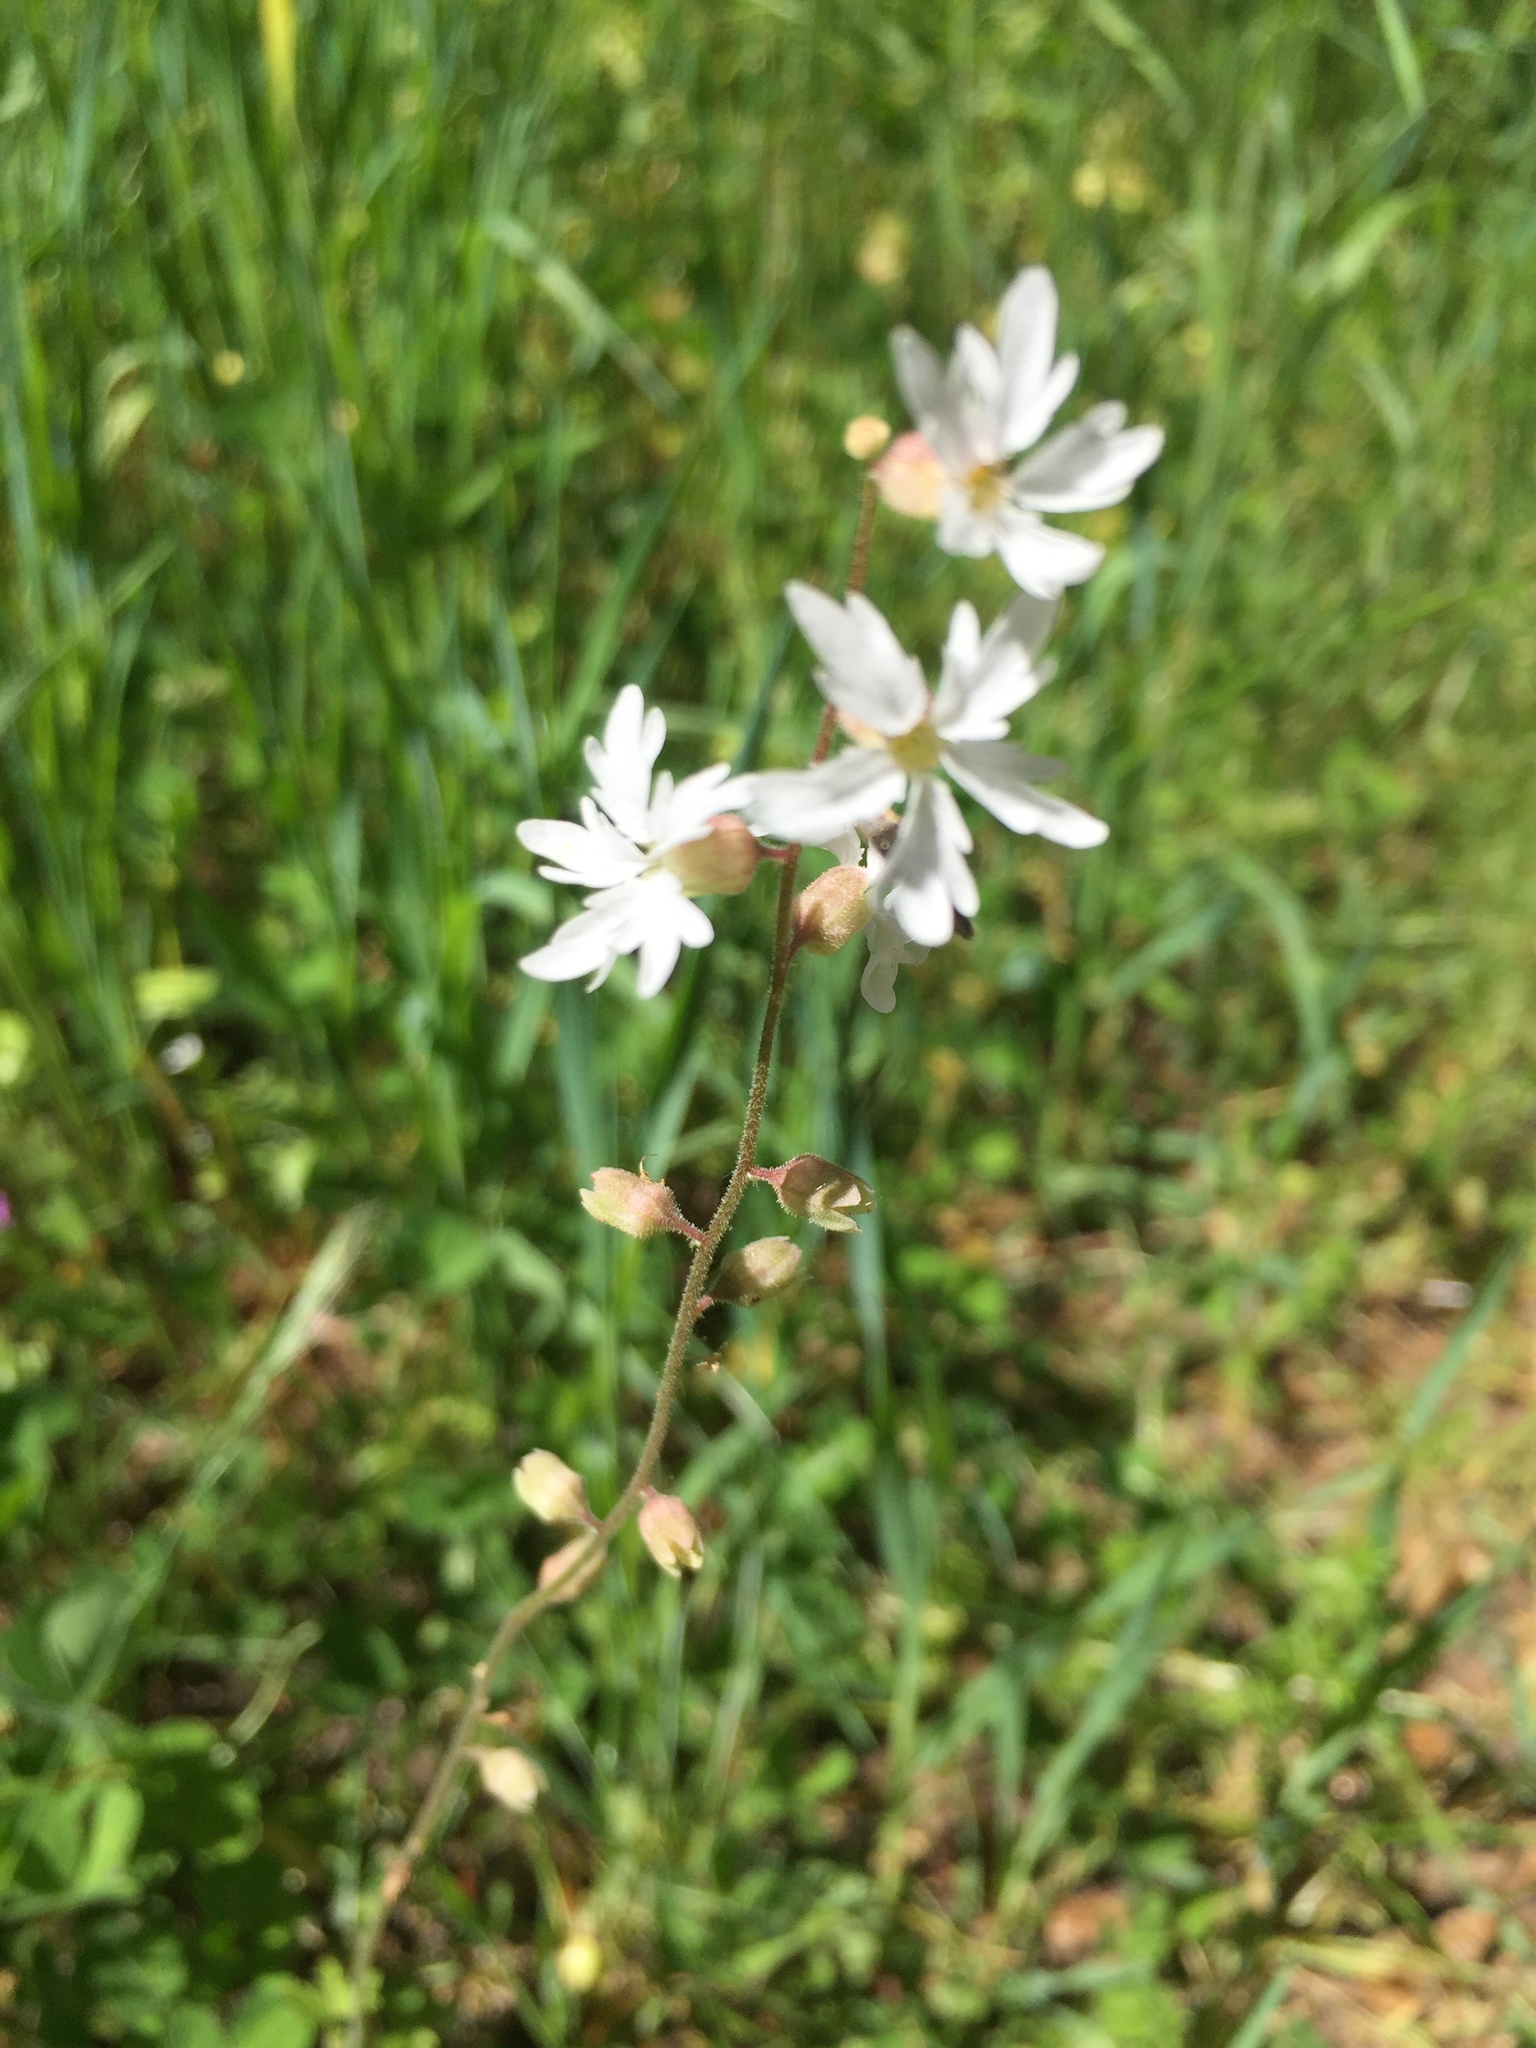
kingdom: Plantae
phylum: Tracheophyta
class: Magnoliopsida
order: Saxifragales
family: Saxifragaceae
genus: Lithophragma
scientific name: Lithophragma heterophyllum
